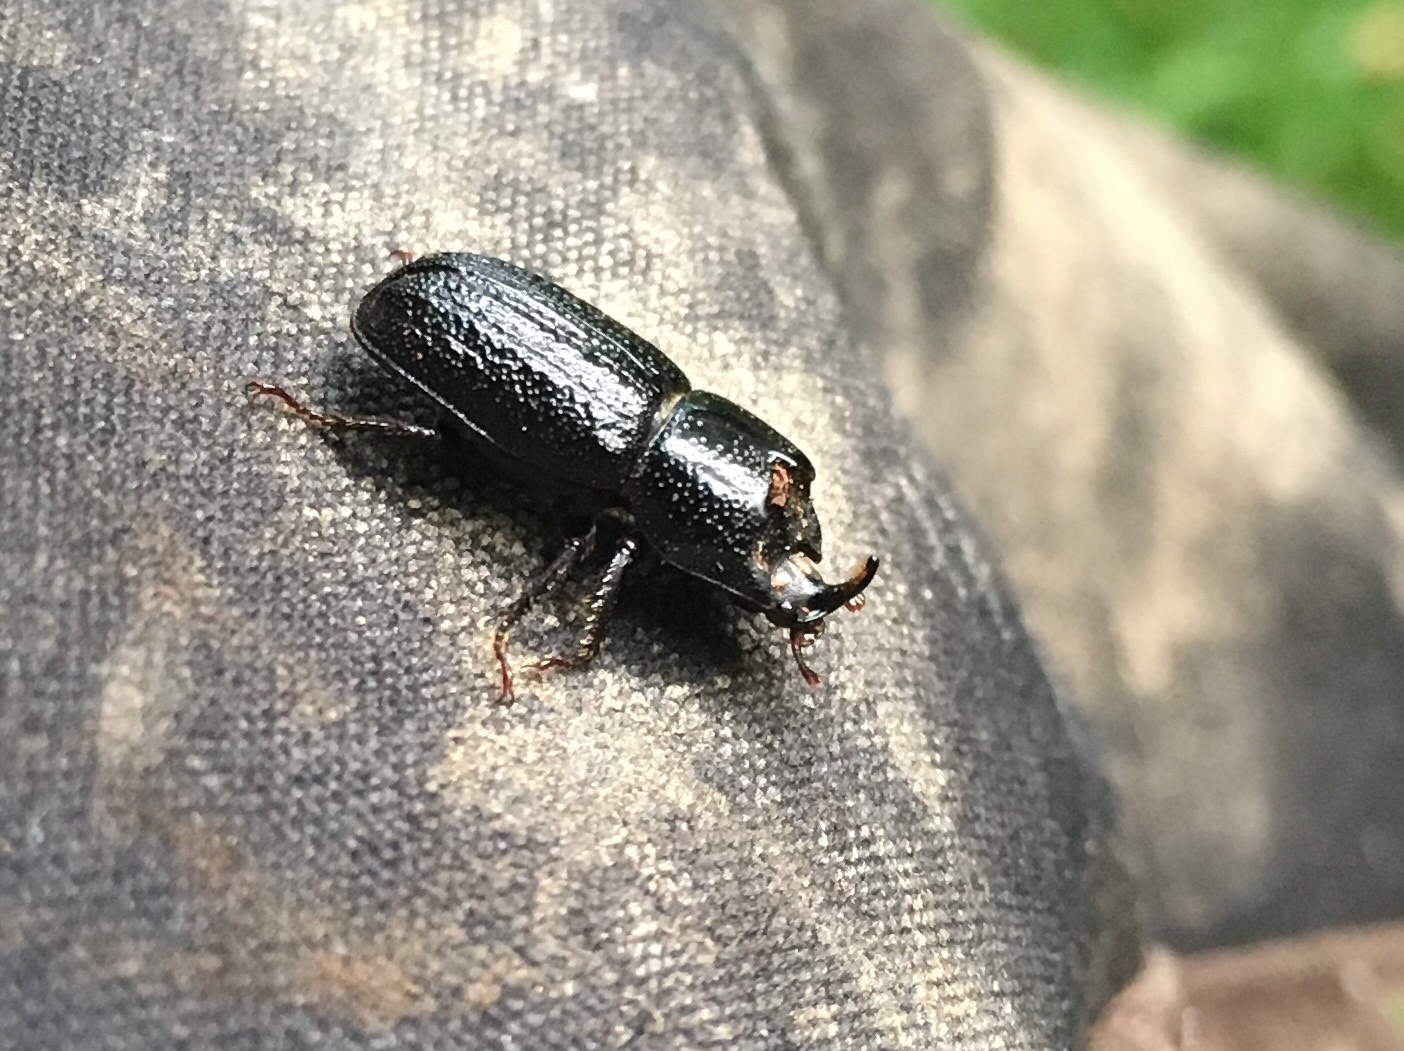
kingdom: Animalia
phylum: Arthropoda
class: Insecta
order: Coleoptera
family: Lucanidae
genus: Sinodendron
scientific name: Sinodendron cylindricum
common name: Rhinoceros beetle
